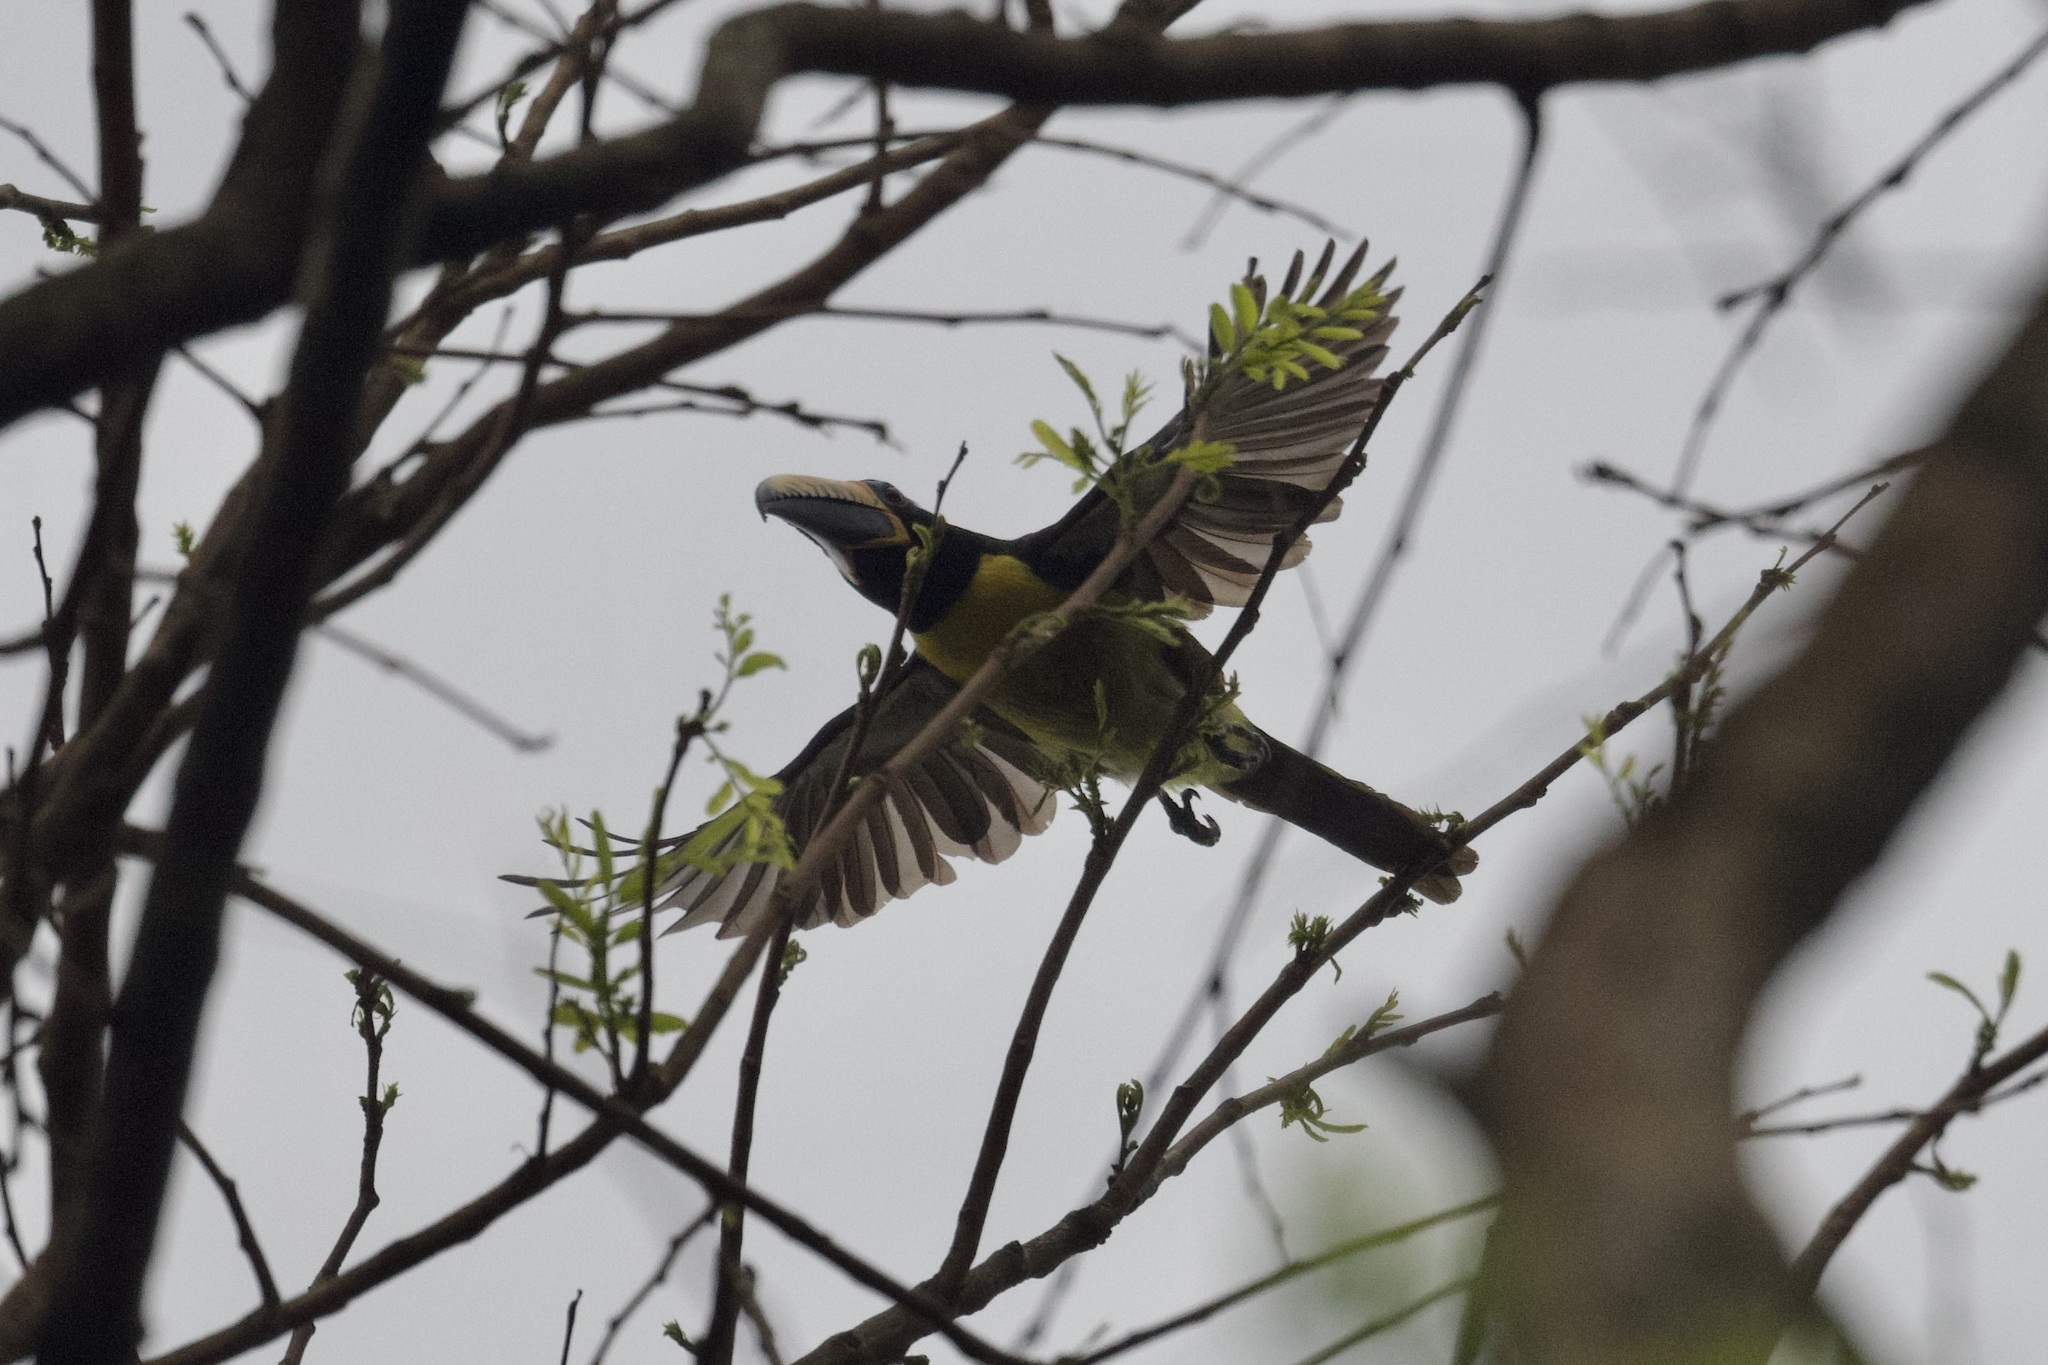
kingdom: Animalia
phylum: Chordata
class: Aves
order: Piciformes
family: Ramphastidae
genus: Pteroglossus
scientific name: Pteroglossus inscriptus
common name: Lettered aracari
